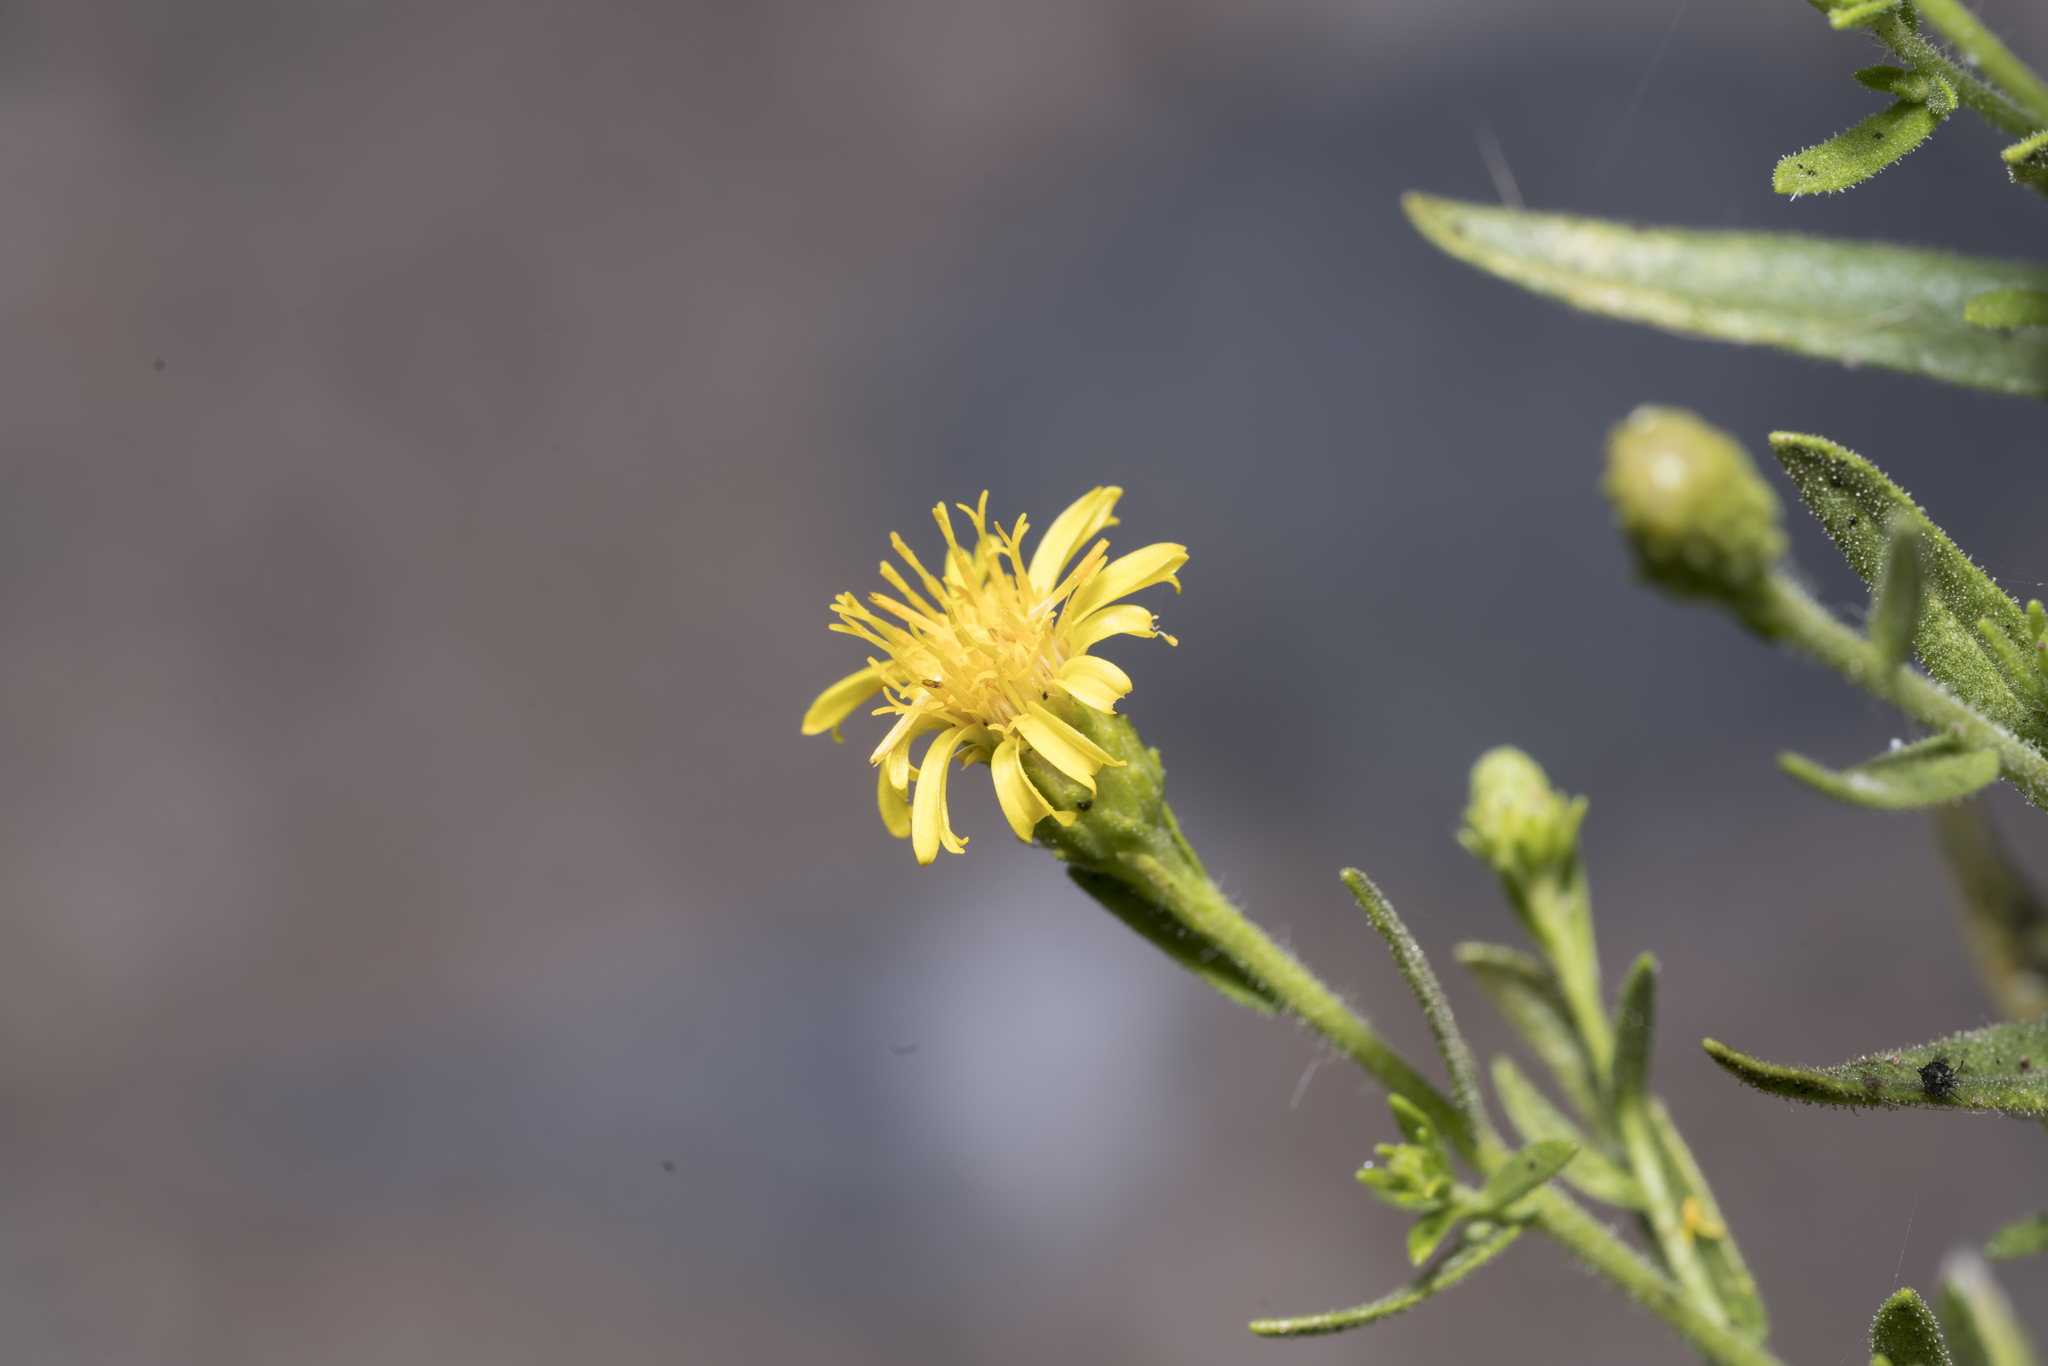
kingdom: Plantae
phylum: Tracheophyta
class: Magnoliopsida
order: Asterales
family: Asteraceae
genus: Dittrichia
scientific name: Dittrichia viscosa
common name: Woody fleabane
